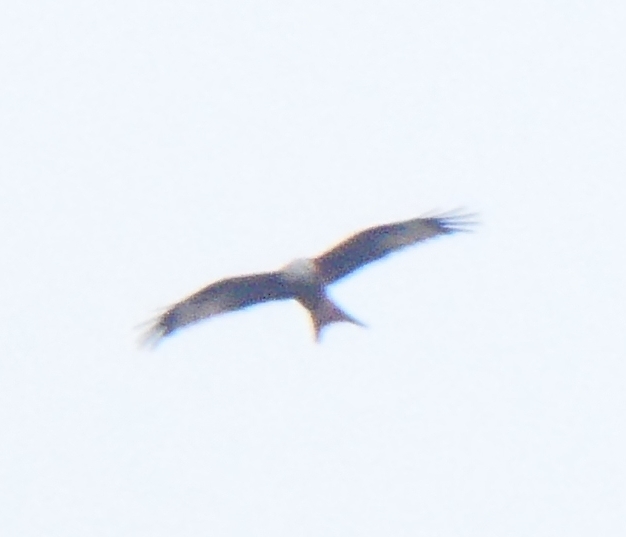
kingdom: Animalia
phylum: Chordata
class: Aves
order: Accipitriformes
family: Accipitridae
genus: Milvus
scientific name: Milvus milvus
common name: Red kite
